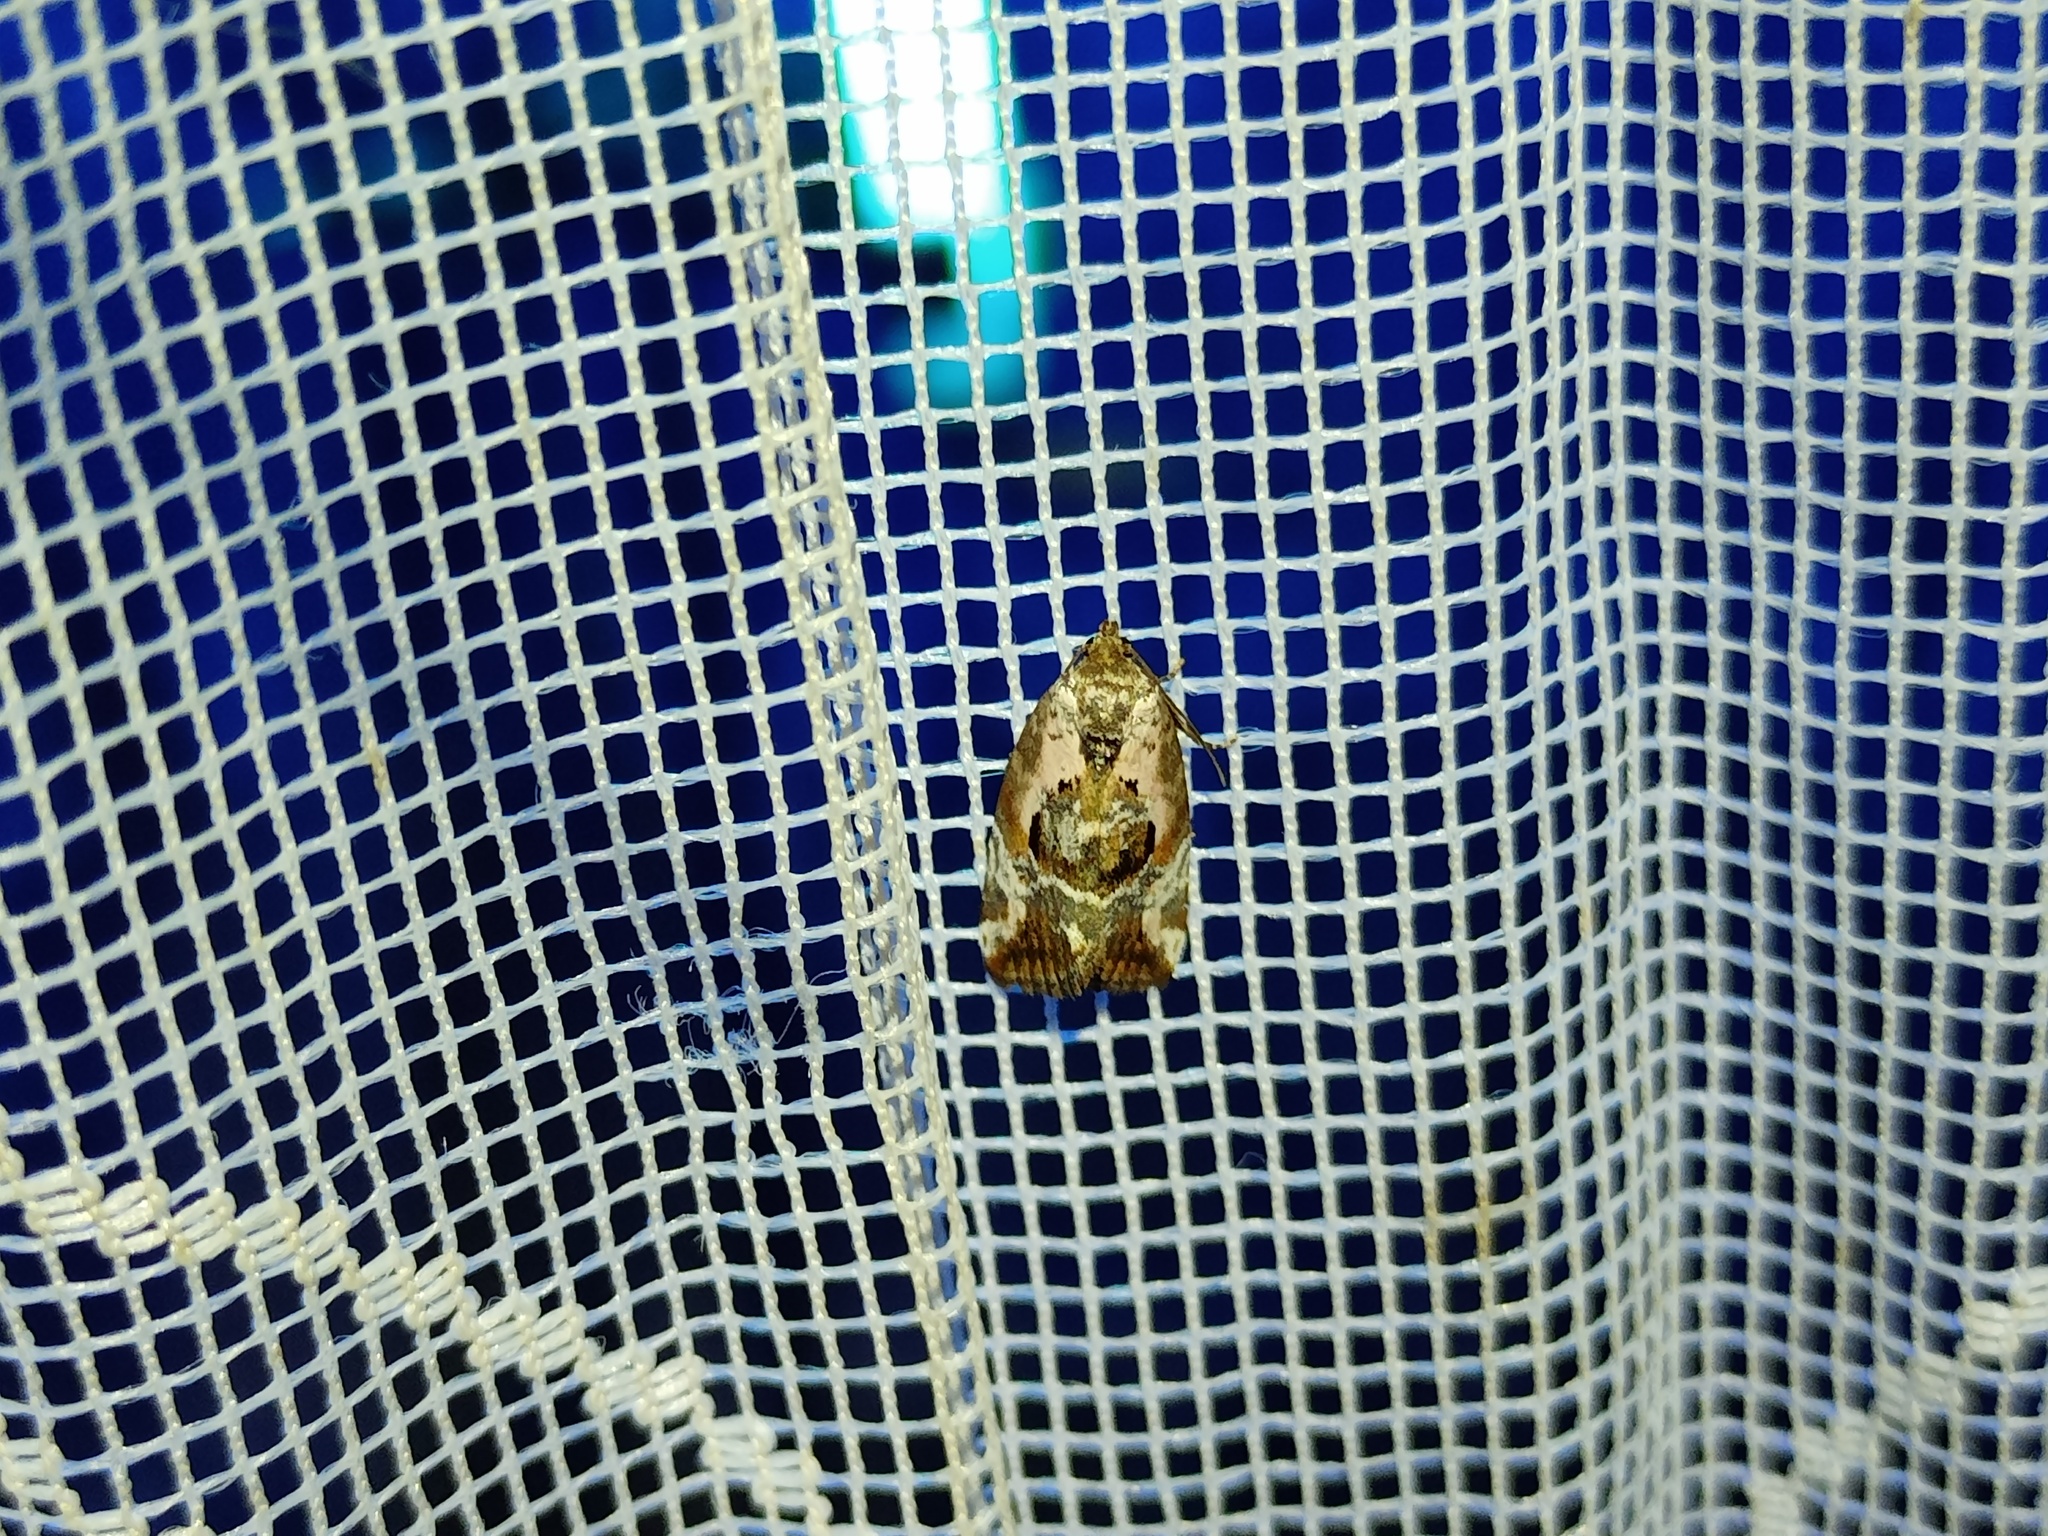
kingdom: Animalia
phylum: Arthropoda
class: Insecta
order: Lepidoptera
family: Noctuidae
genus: Elaphria
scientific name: Elaphria venustula
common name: Rosy marbled
